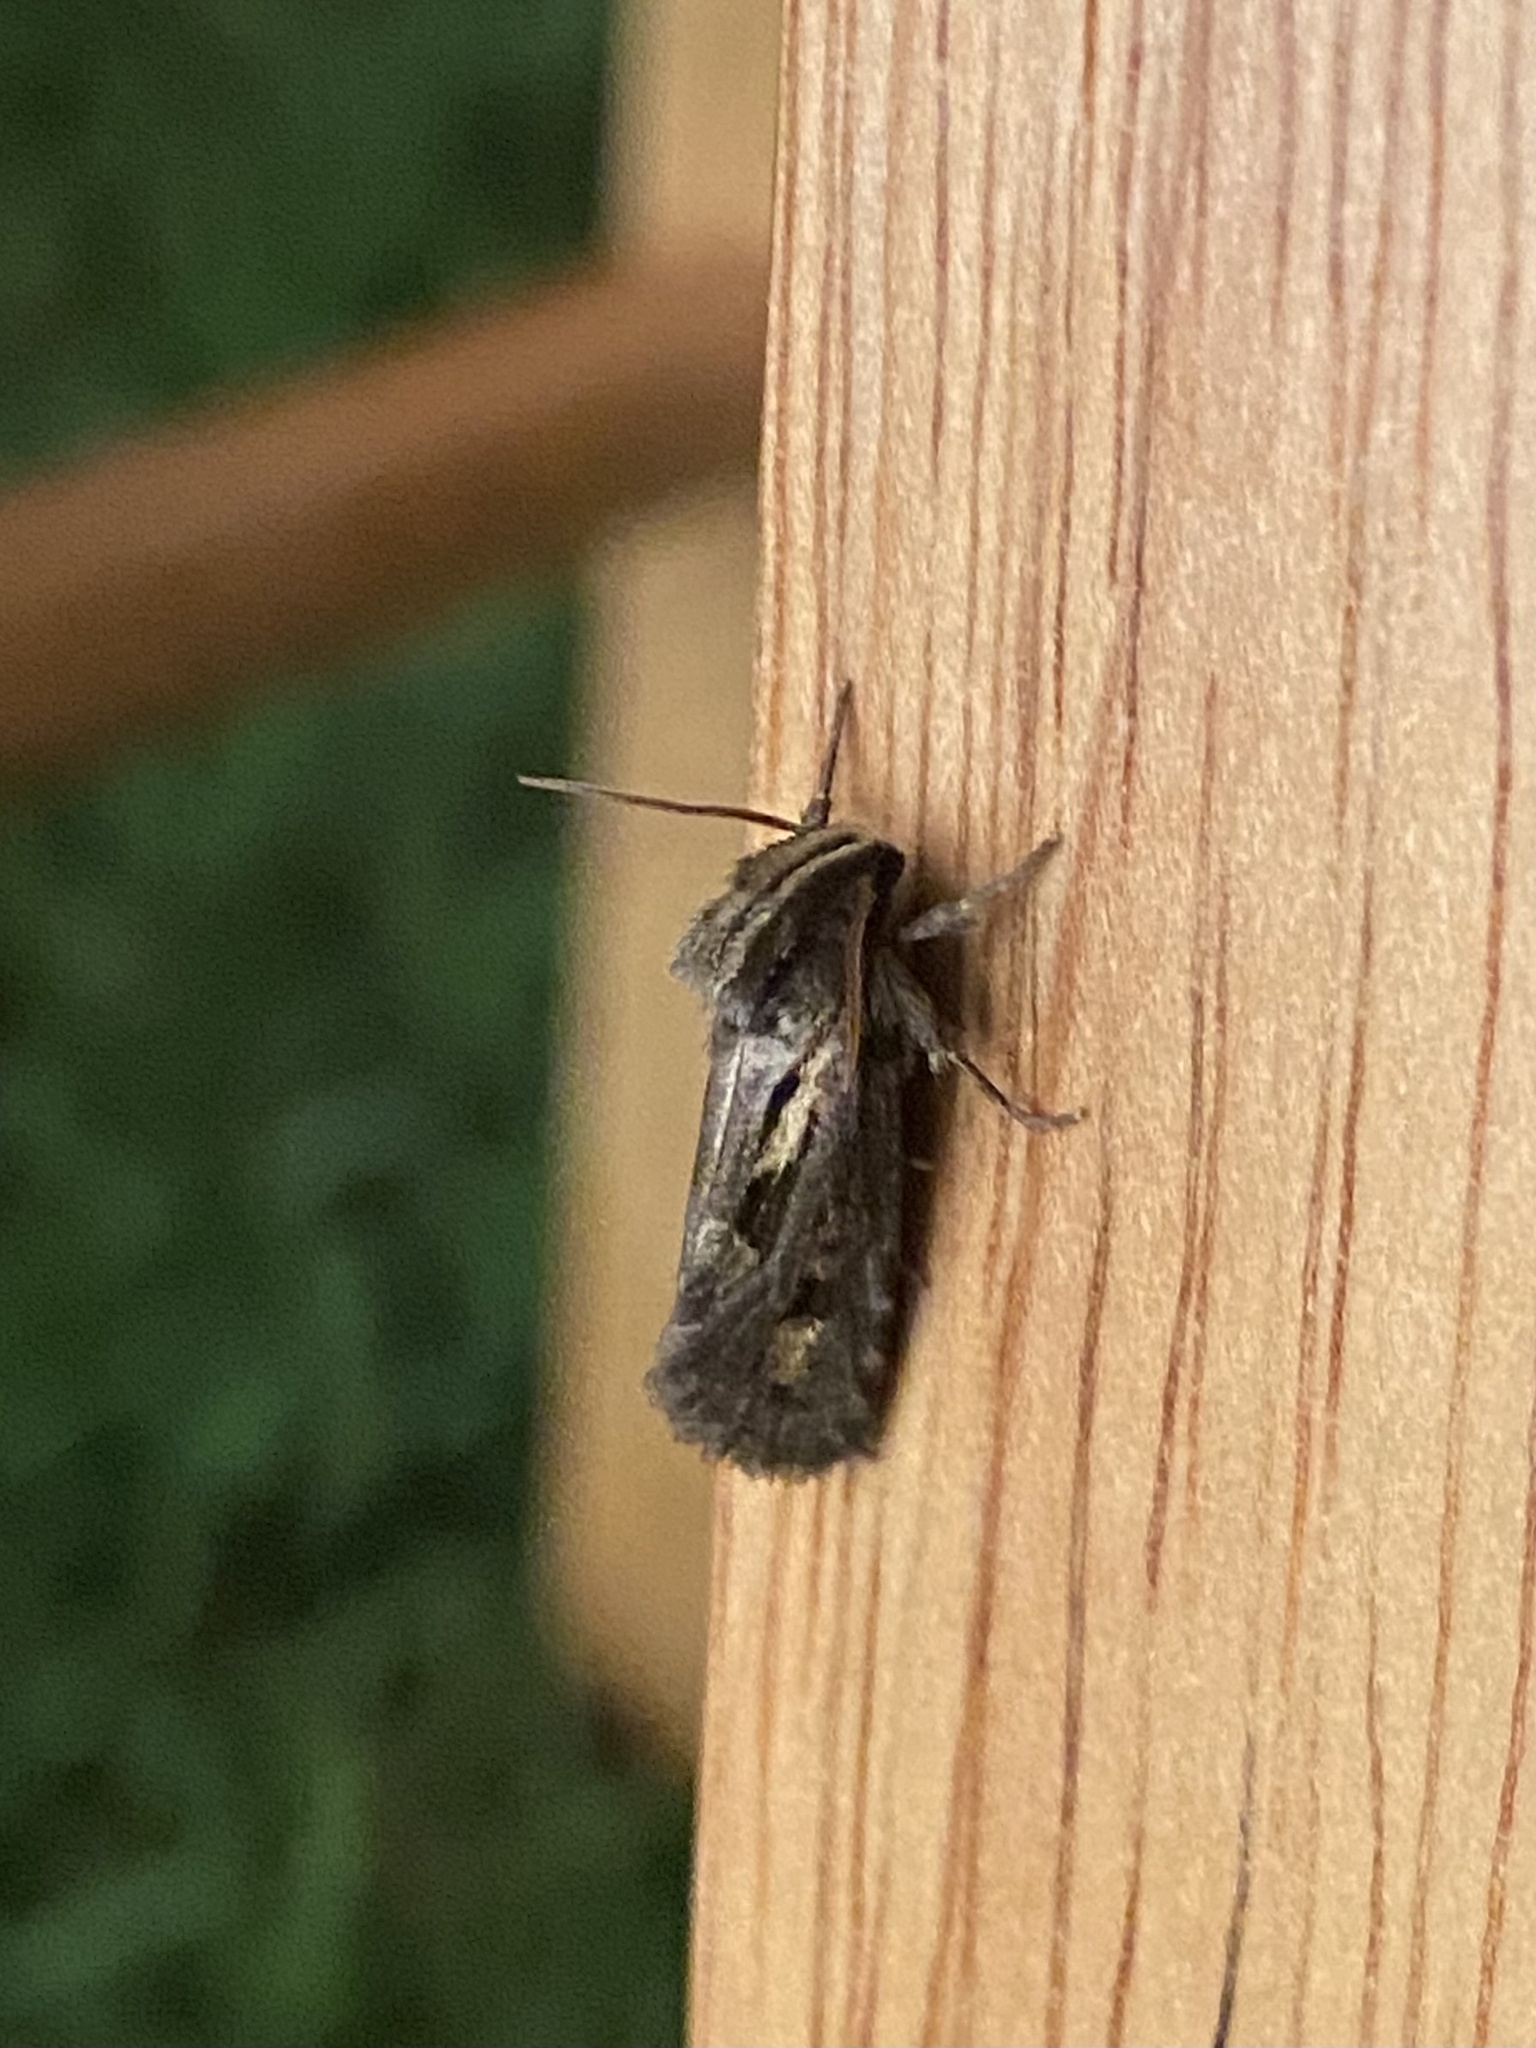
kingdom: Animalia
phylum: Arthropoda
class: Insecta
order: Lepidoptera
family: Tineidae
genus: Acrolophus
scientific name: Acrolophus popeanella
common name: Clemens' grass tubeworm moth
